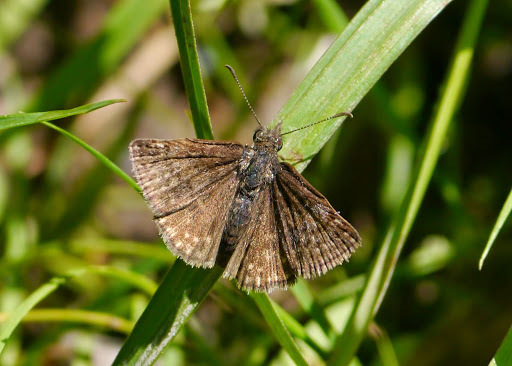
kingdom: Animalia
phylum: Arthropoda
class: Insecta
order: Lepidoptera
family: Hesperiidae
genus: Erynnis
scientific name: Erynnis icelus
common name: Dreamy duskywing
